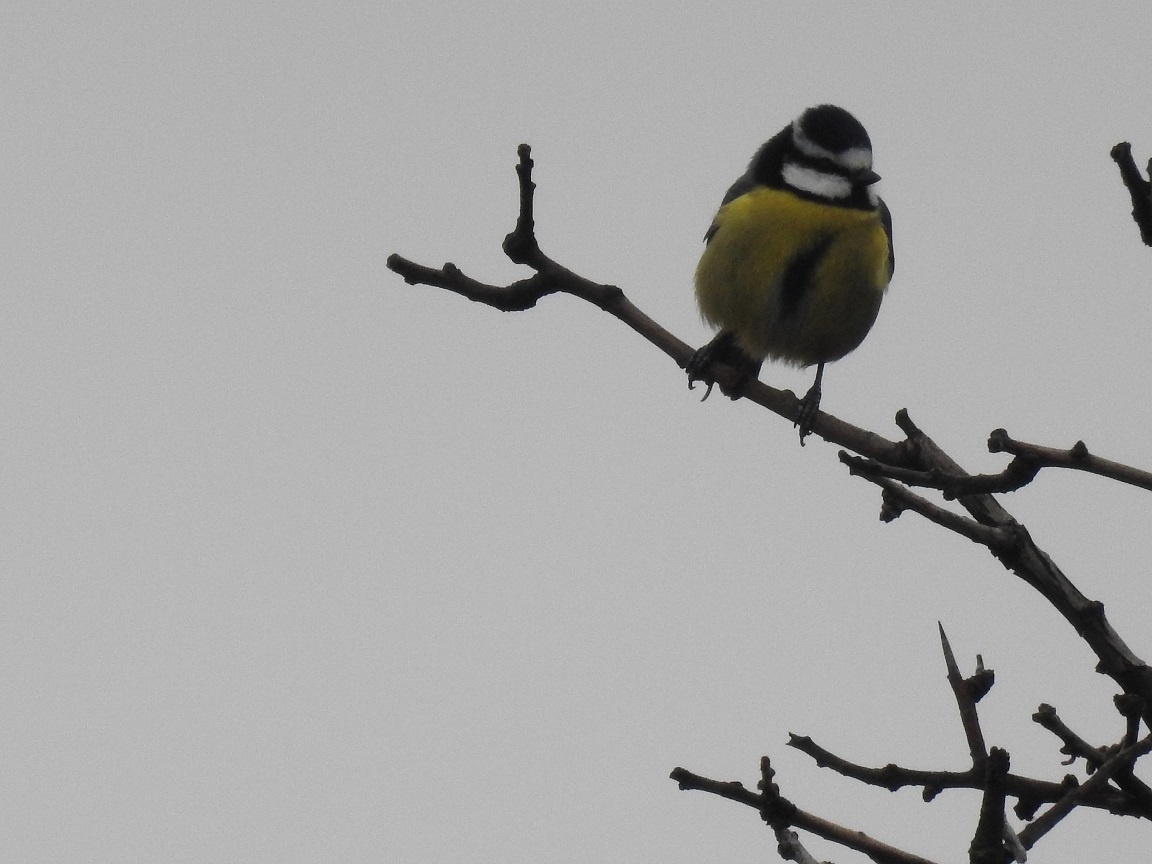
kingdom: Animalia
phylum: Chordata
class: Aves
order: Passeriformes
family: Paridae
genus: Cyanistes
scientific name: Cyanistes teneriffae
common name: African blue tit
